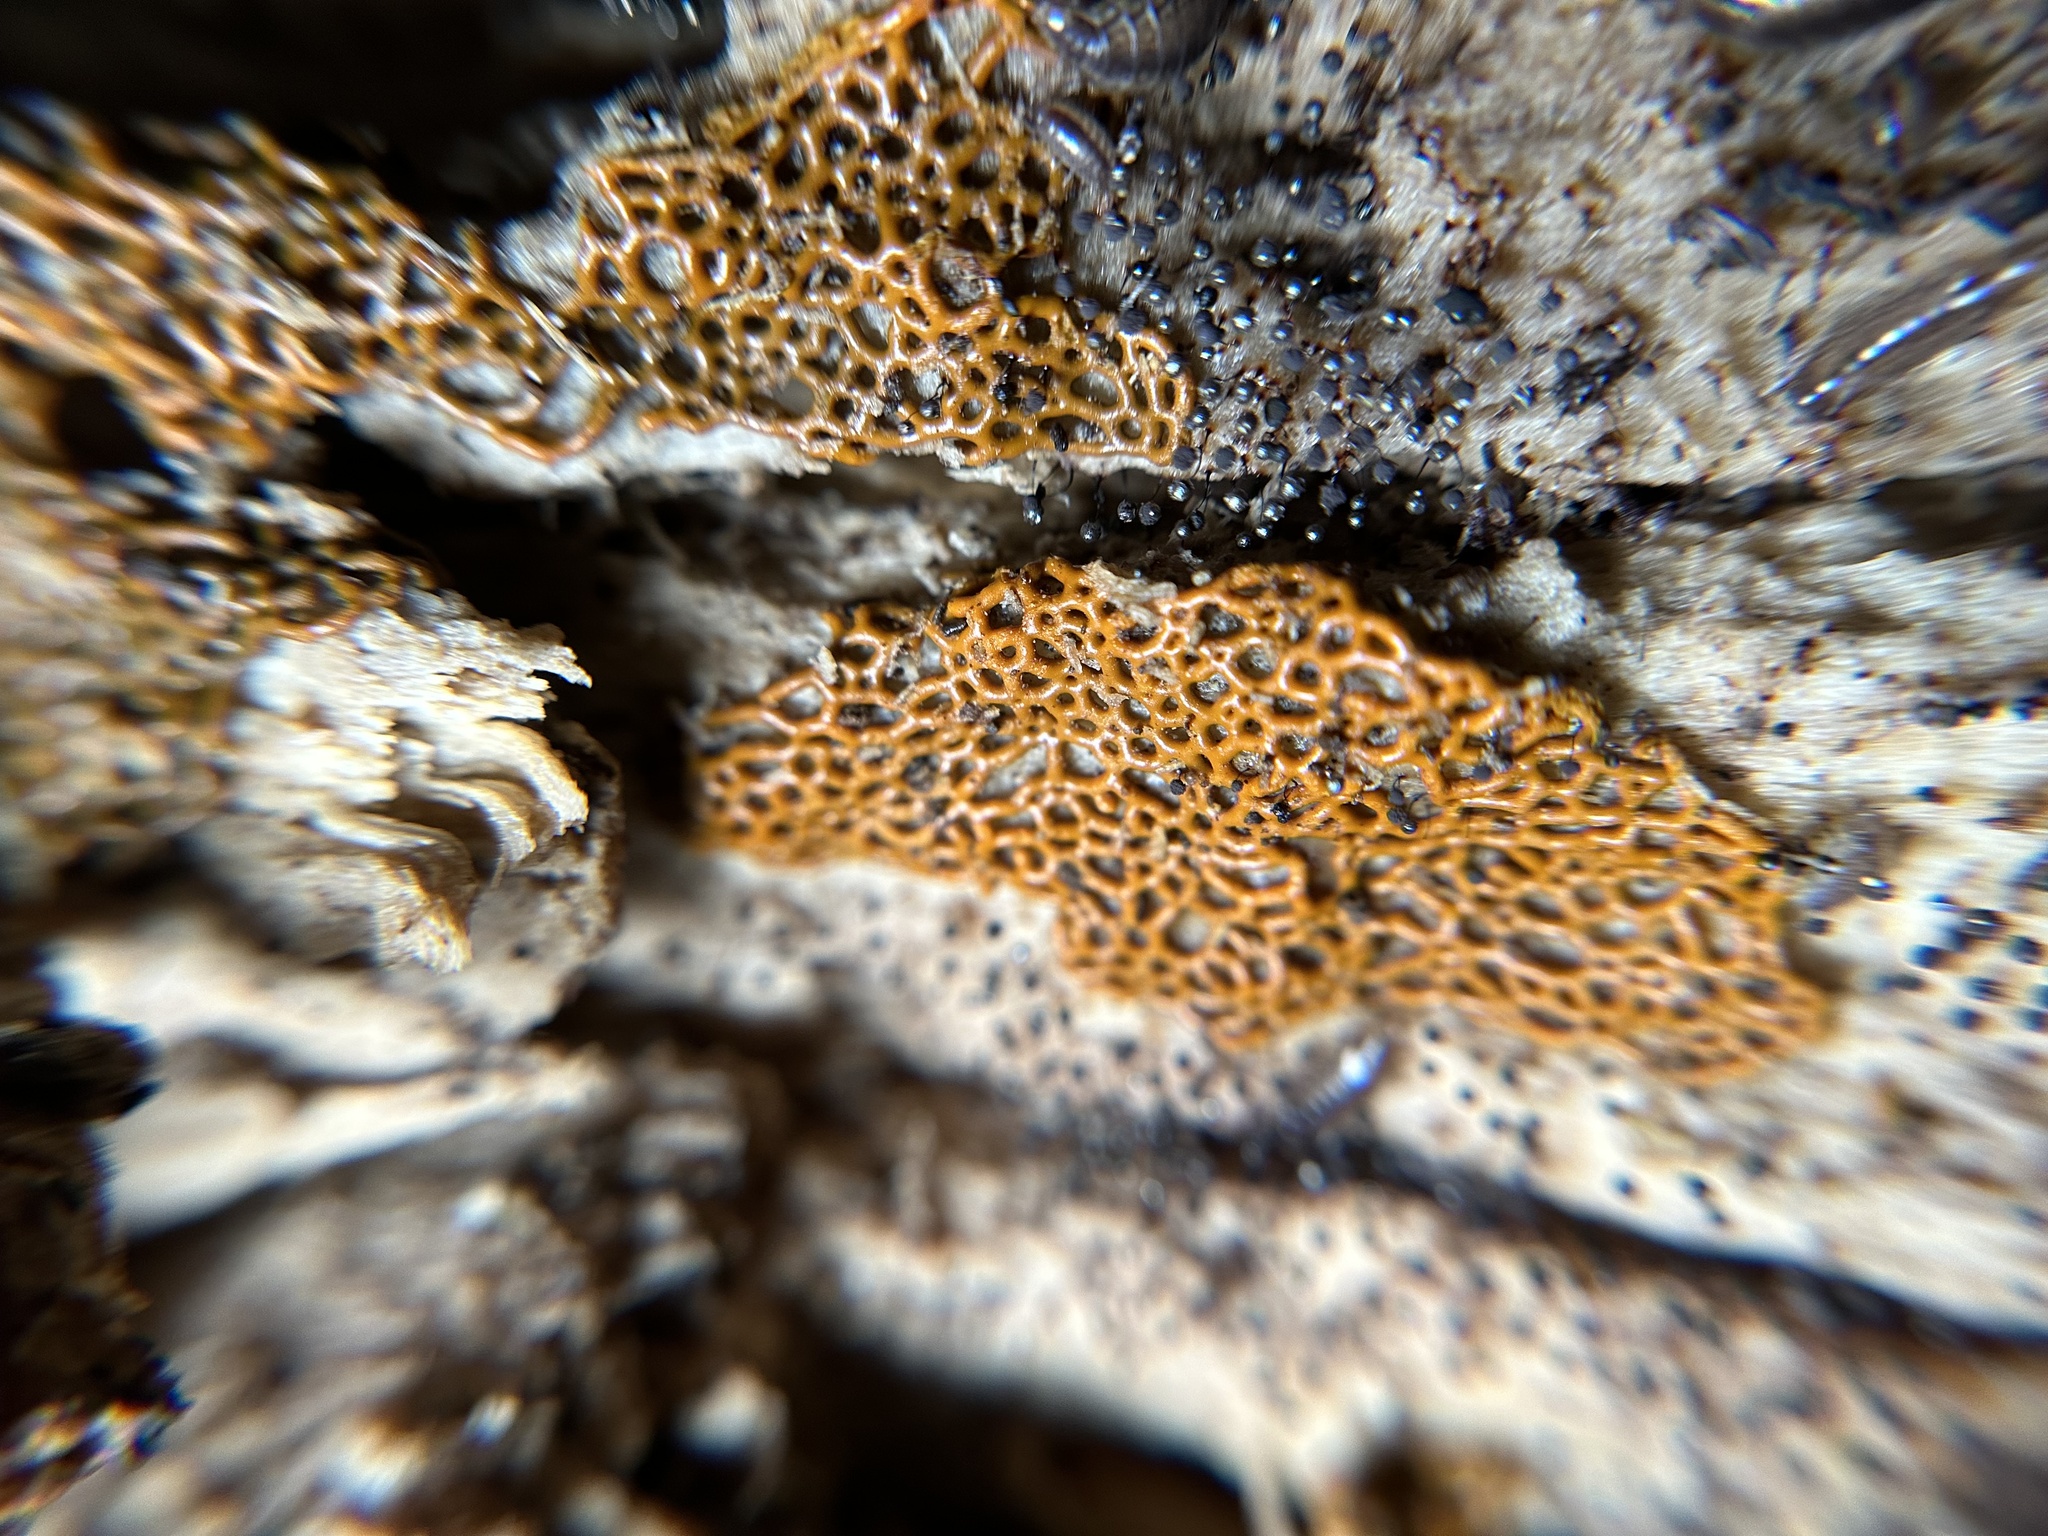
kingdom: Protozoa
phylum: Mycetozoa
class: Myxomycetes
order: Trichiales
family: Arcyriaceae
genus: Hemitrichia
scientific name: Hemitrichia serpula
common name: Pretzel slime mold
